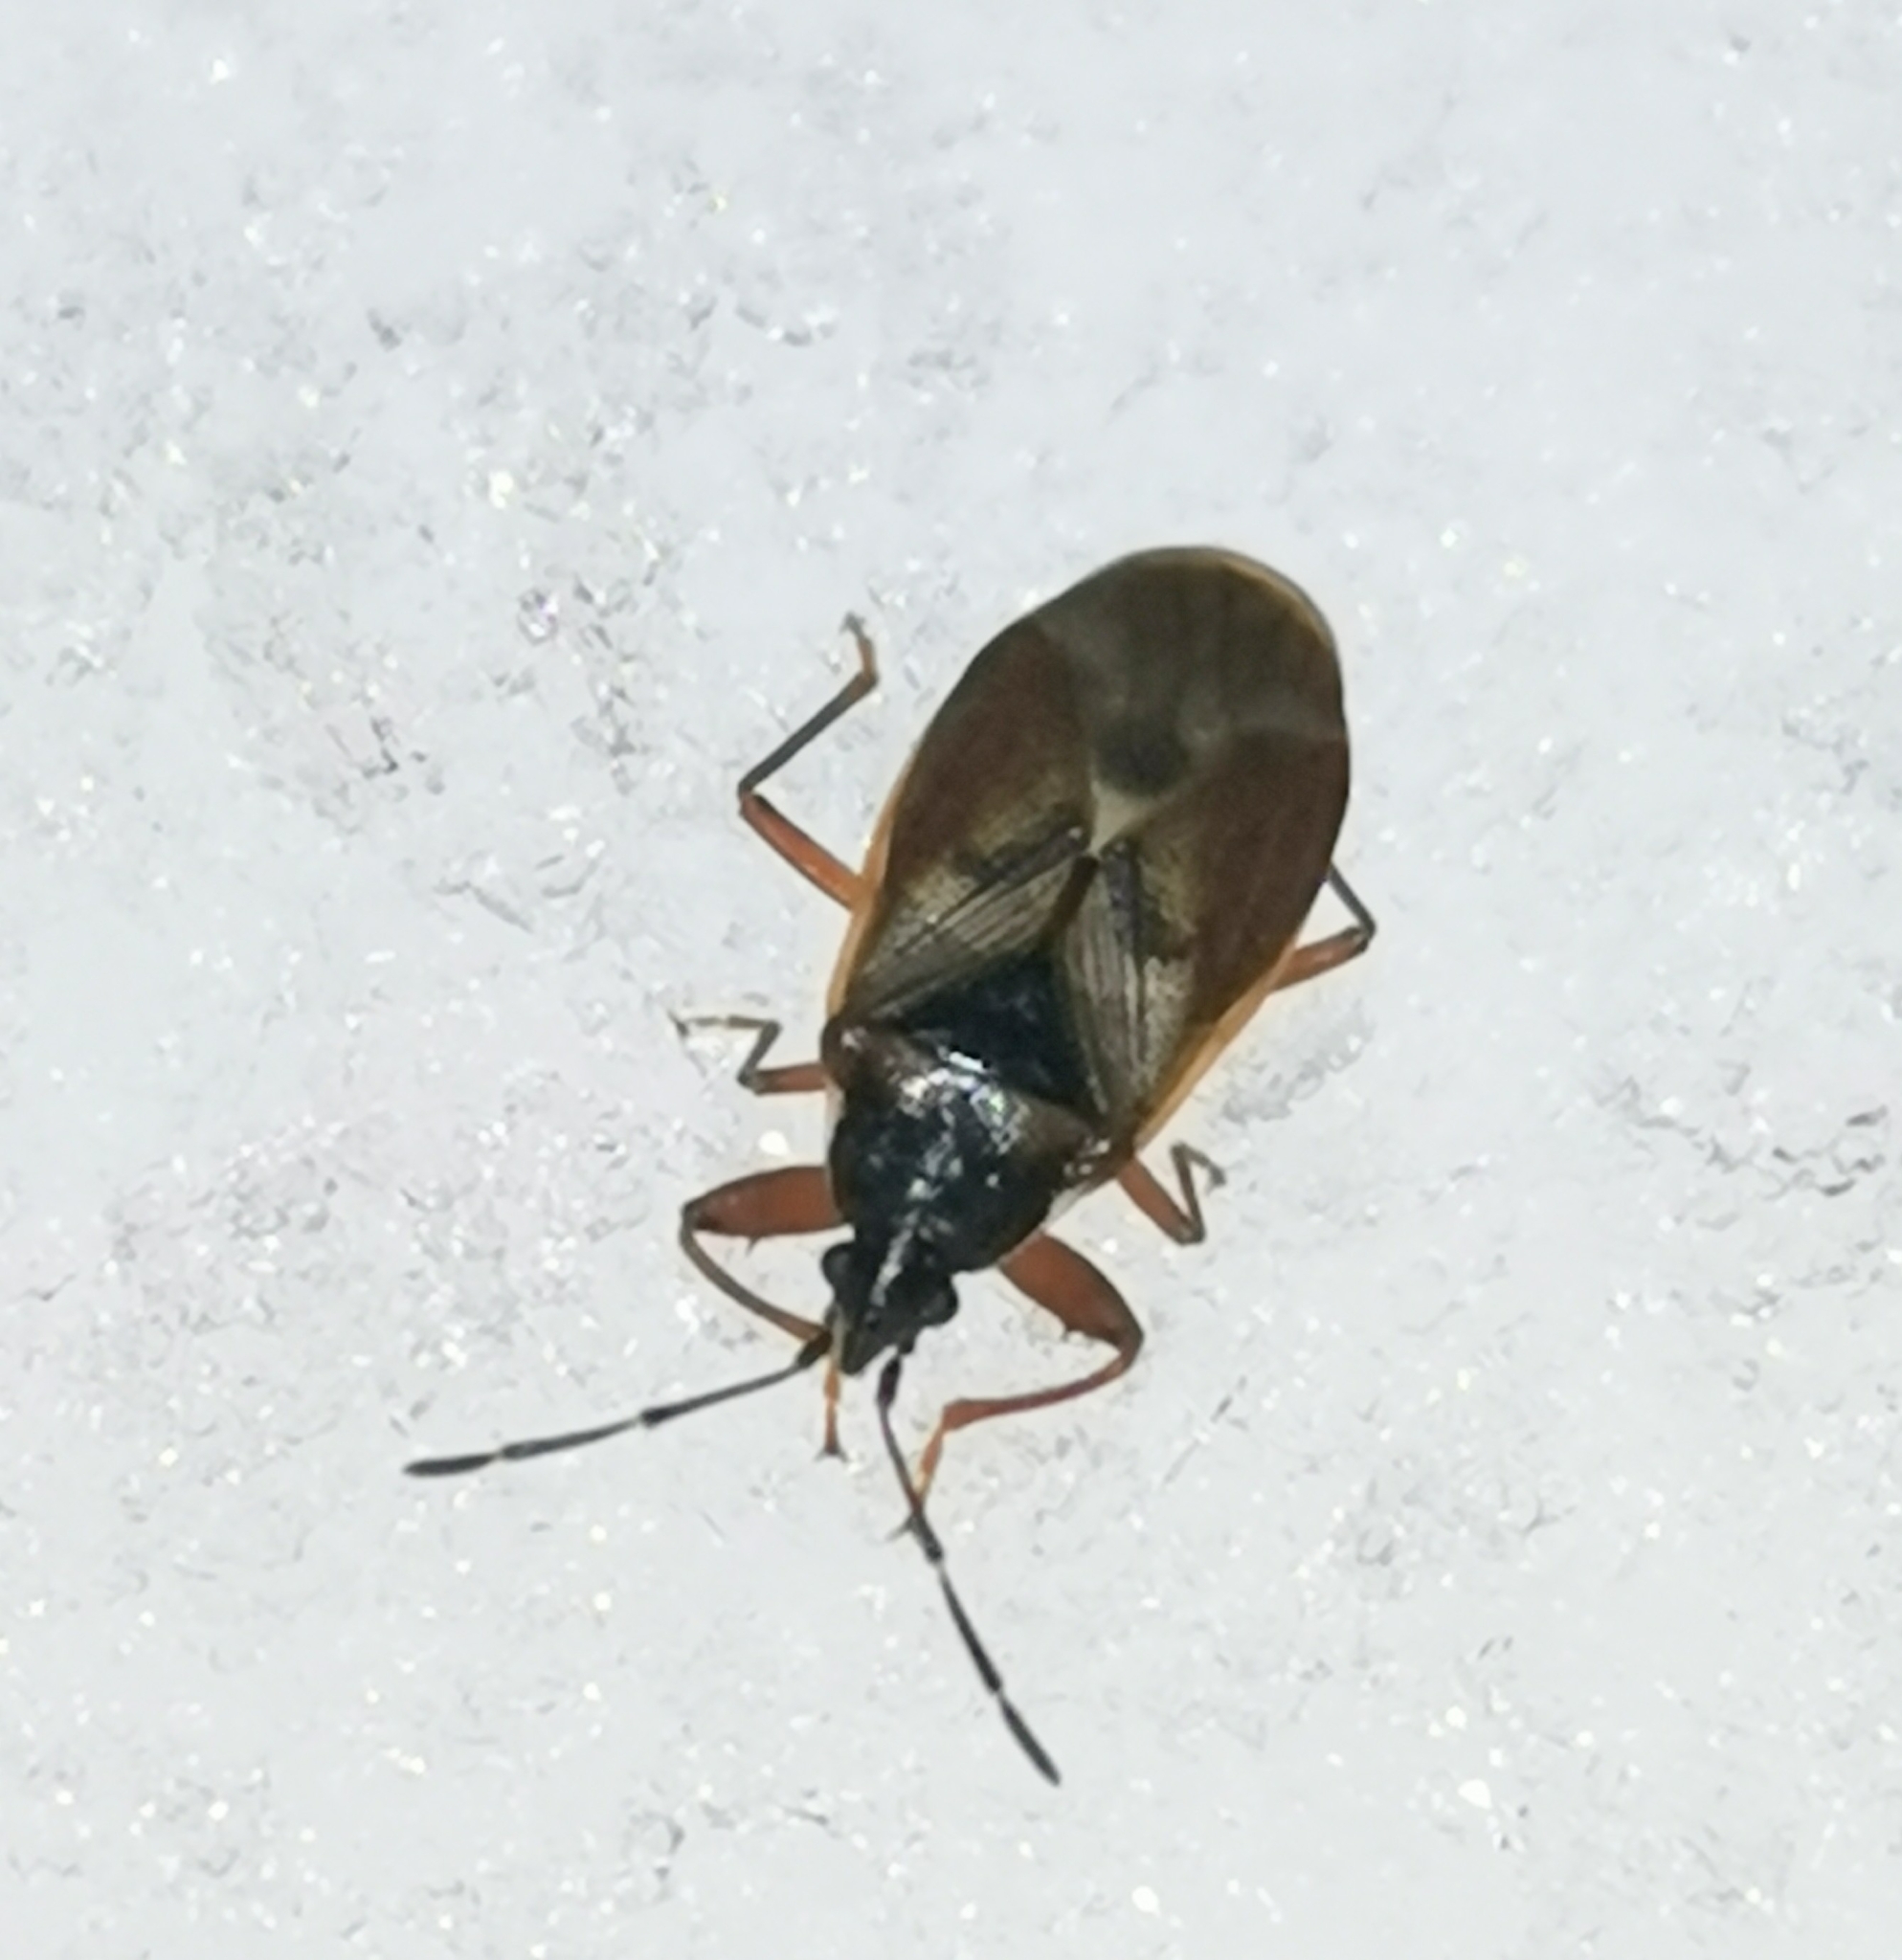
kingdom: Animalia
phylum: Arthropoda
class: Insecta
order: Hemiptera
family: Rhyparochromidae
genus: Gastrodes
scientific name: Gastrodes abietum
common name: Spruce cone bug
